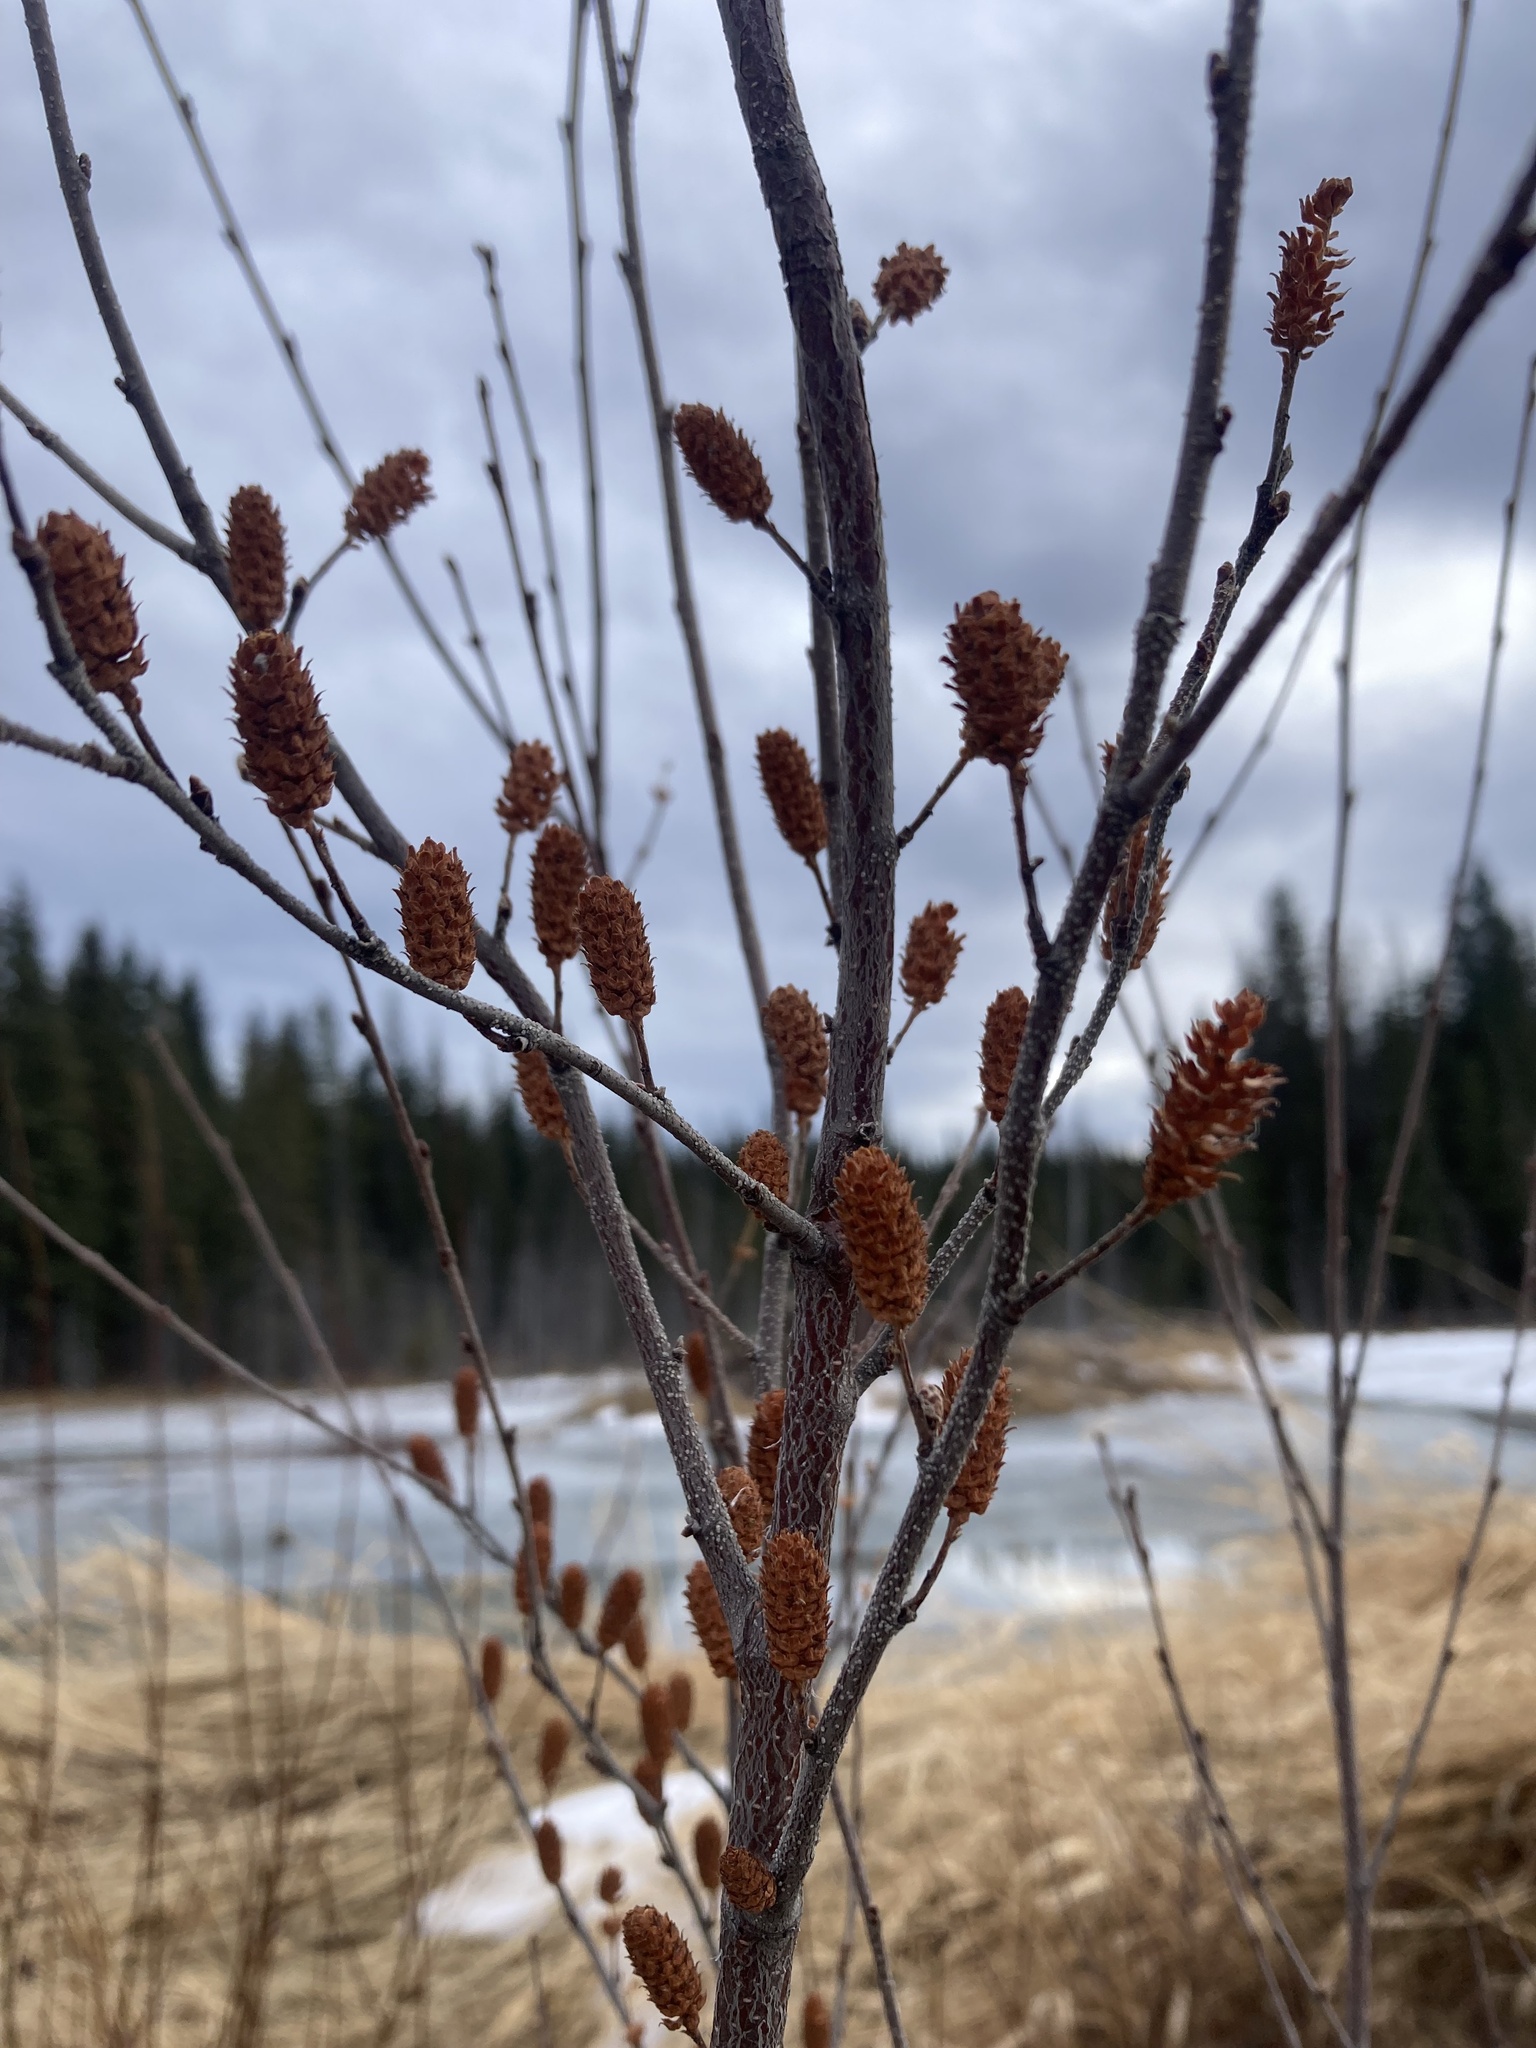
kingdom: Plantae
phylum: Tracheophyta
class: Magnoliopsida
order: Fagales
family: Betulaceae
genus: Betula
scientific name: Betula glandulosa
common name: Dwarf birch
